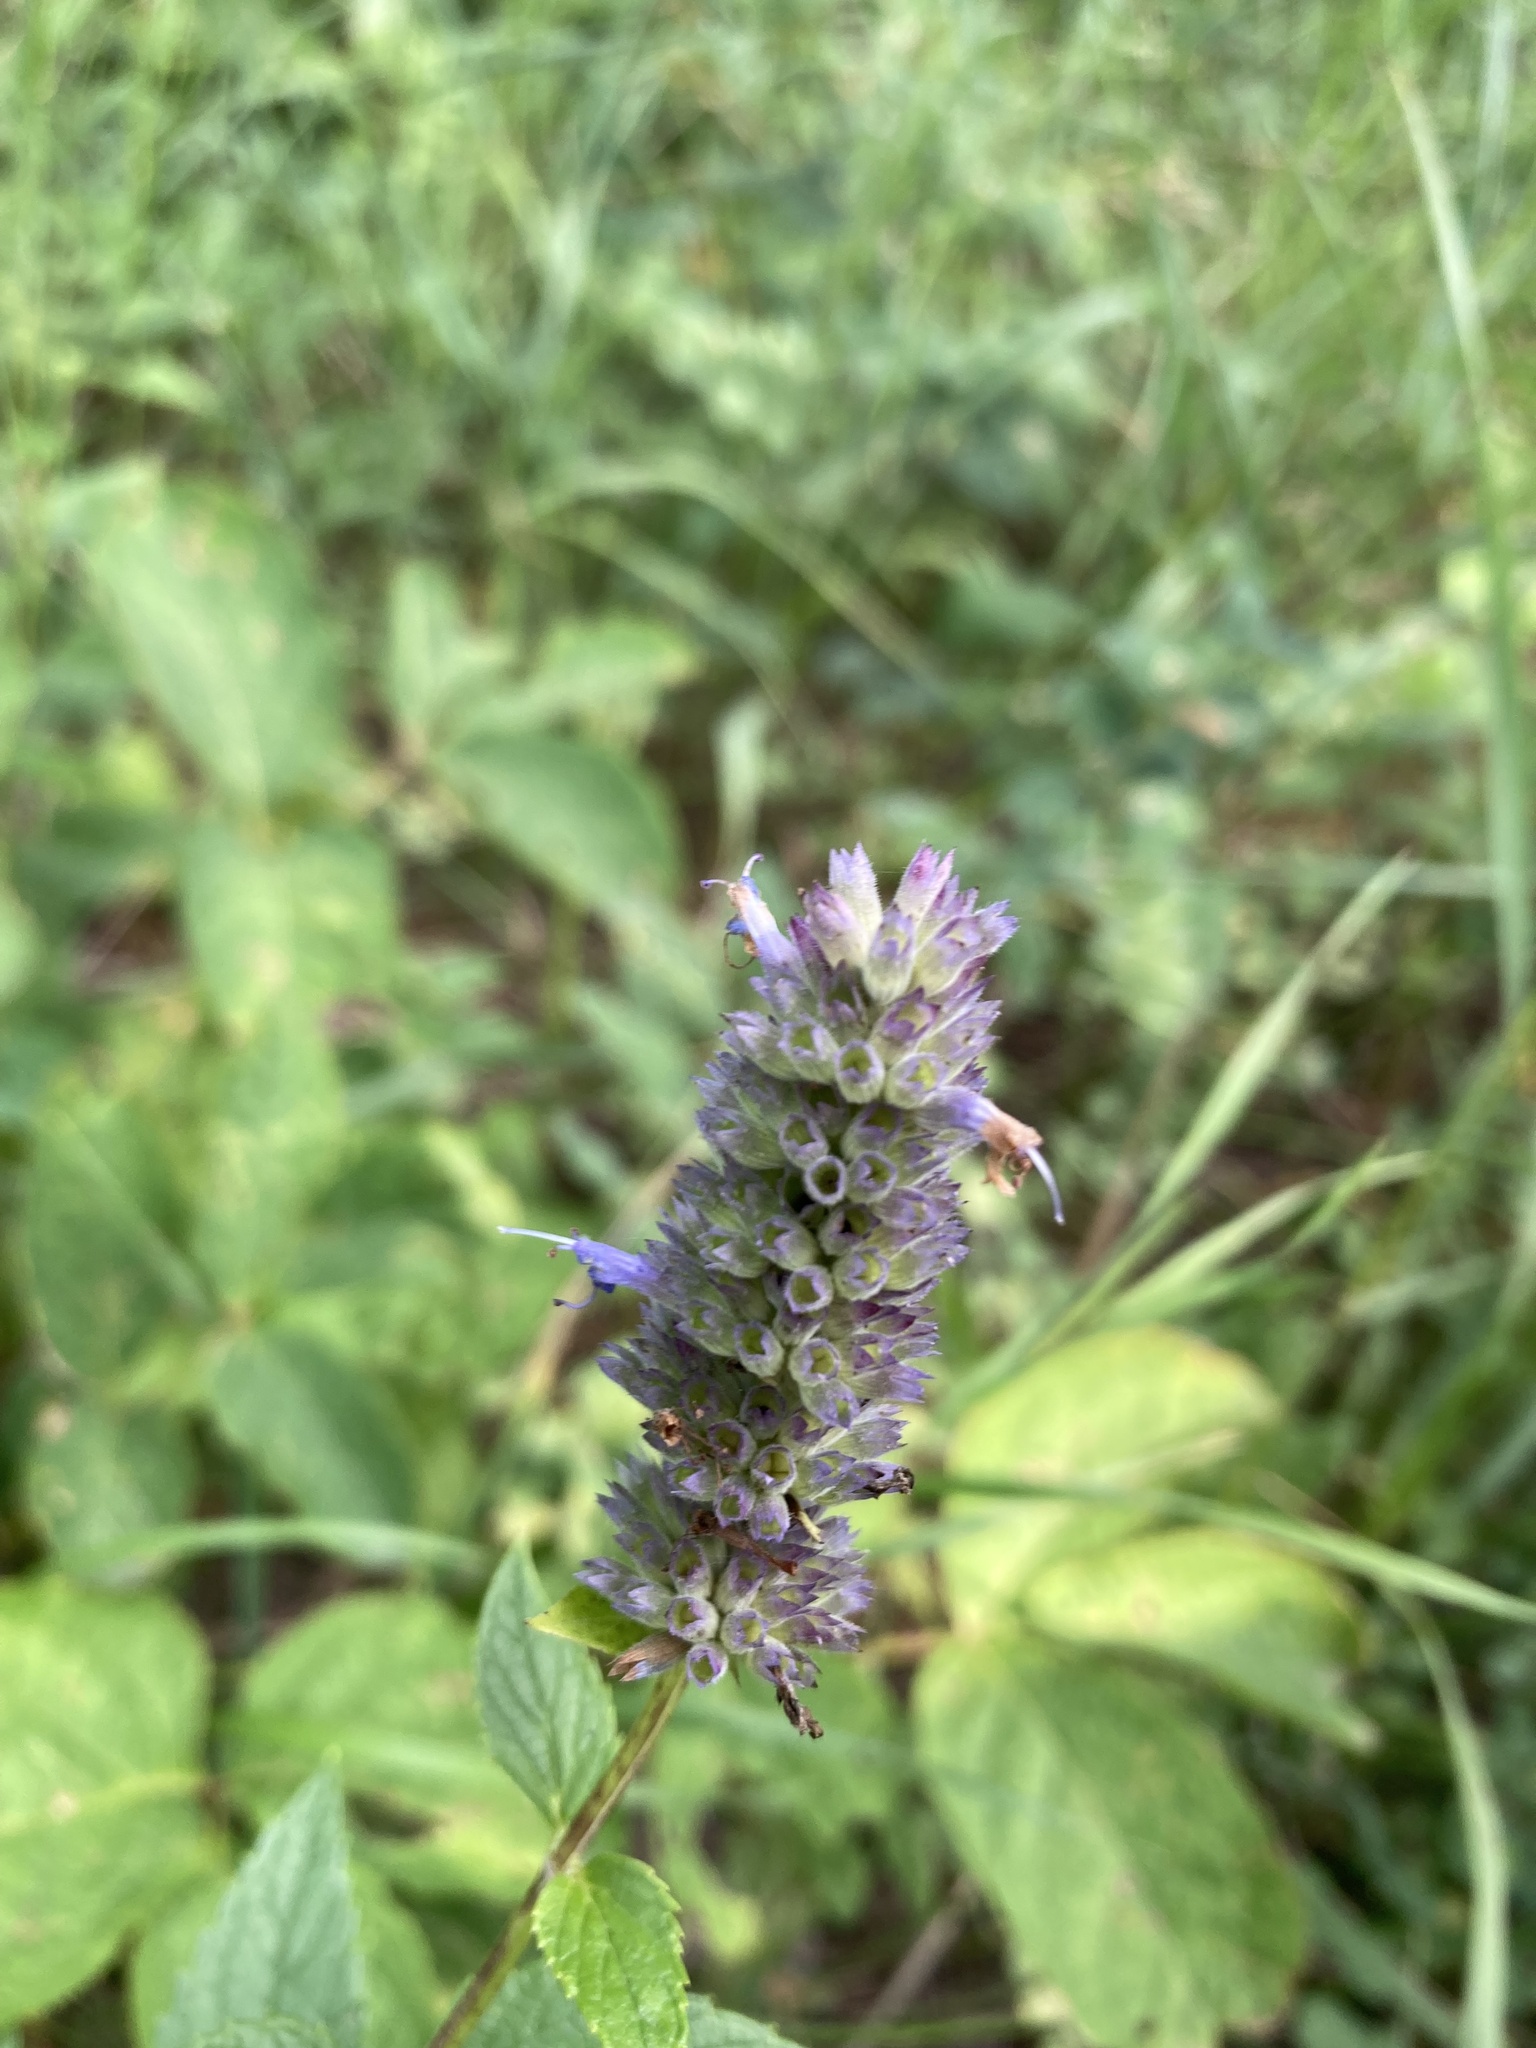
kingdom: Plantae
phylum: Tracheophyta
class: Magnoliopsida
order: Lamiales
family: Lamiaceae
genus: Agastache
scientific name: Agastache foeniculum
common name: Anise hyssop
